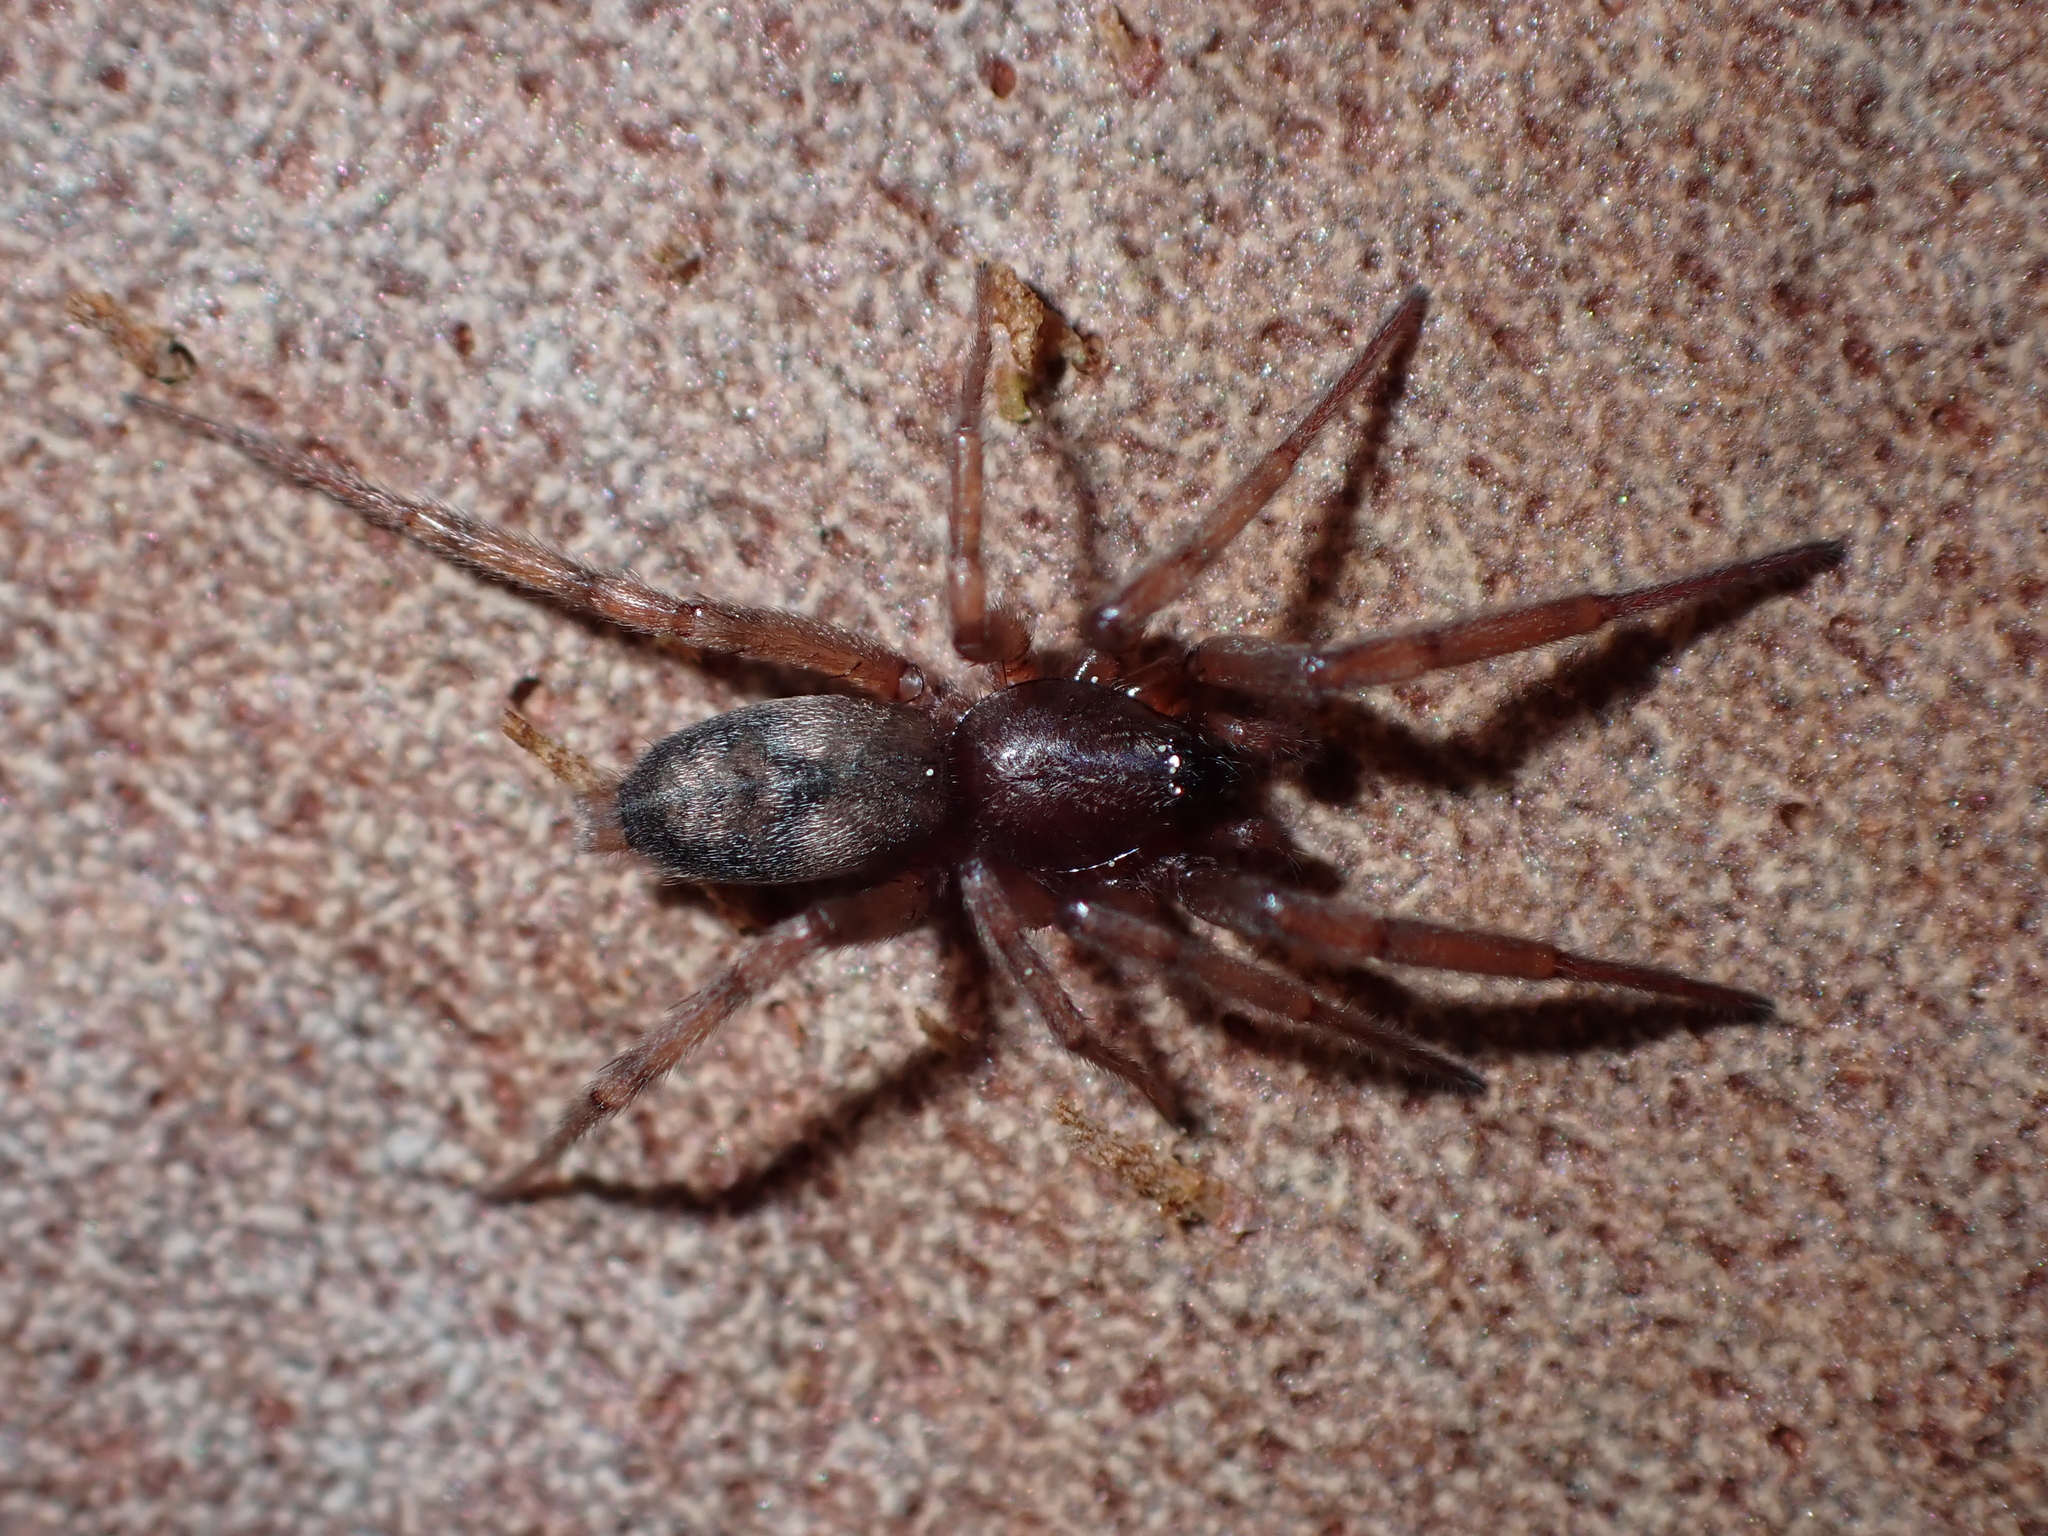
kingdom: Animalia
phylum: Arthropoda
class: Arachnida
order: Araneae
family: Gnaphosidae
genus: Intruda
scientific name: Intruda signata
